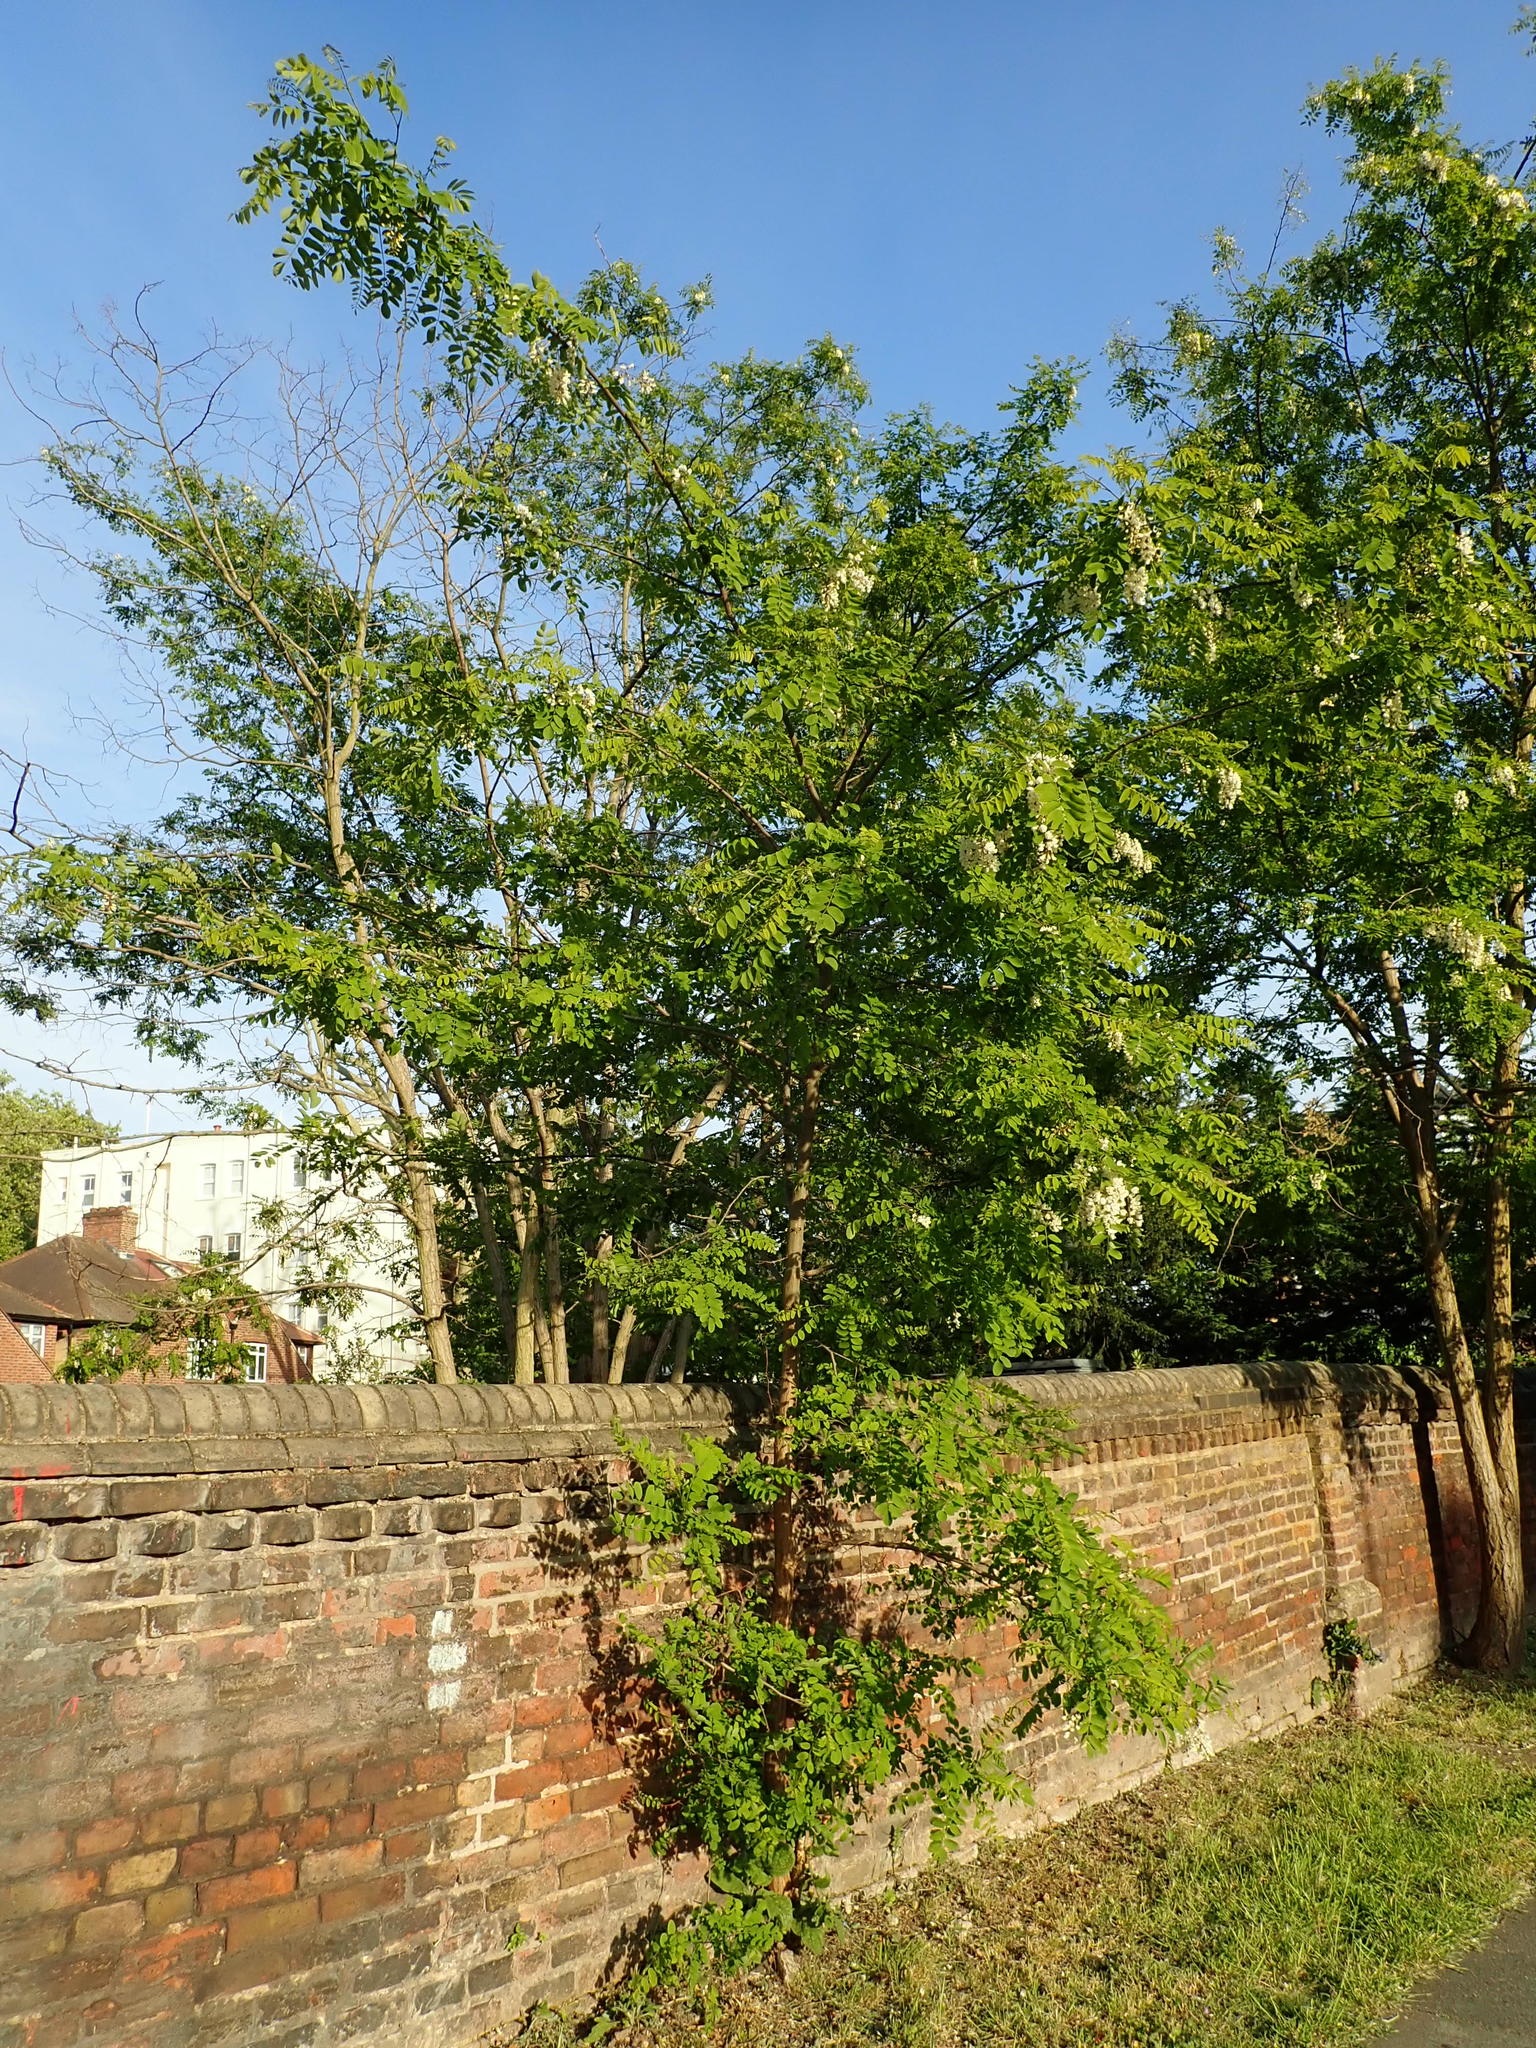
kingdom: Plantae
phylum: Tracheophyta
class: Magnoliopsida
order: Fabales
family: Fabaceae
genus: Robinia
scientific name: Robinia pseudoacacia
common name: Black locust
